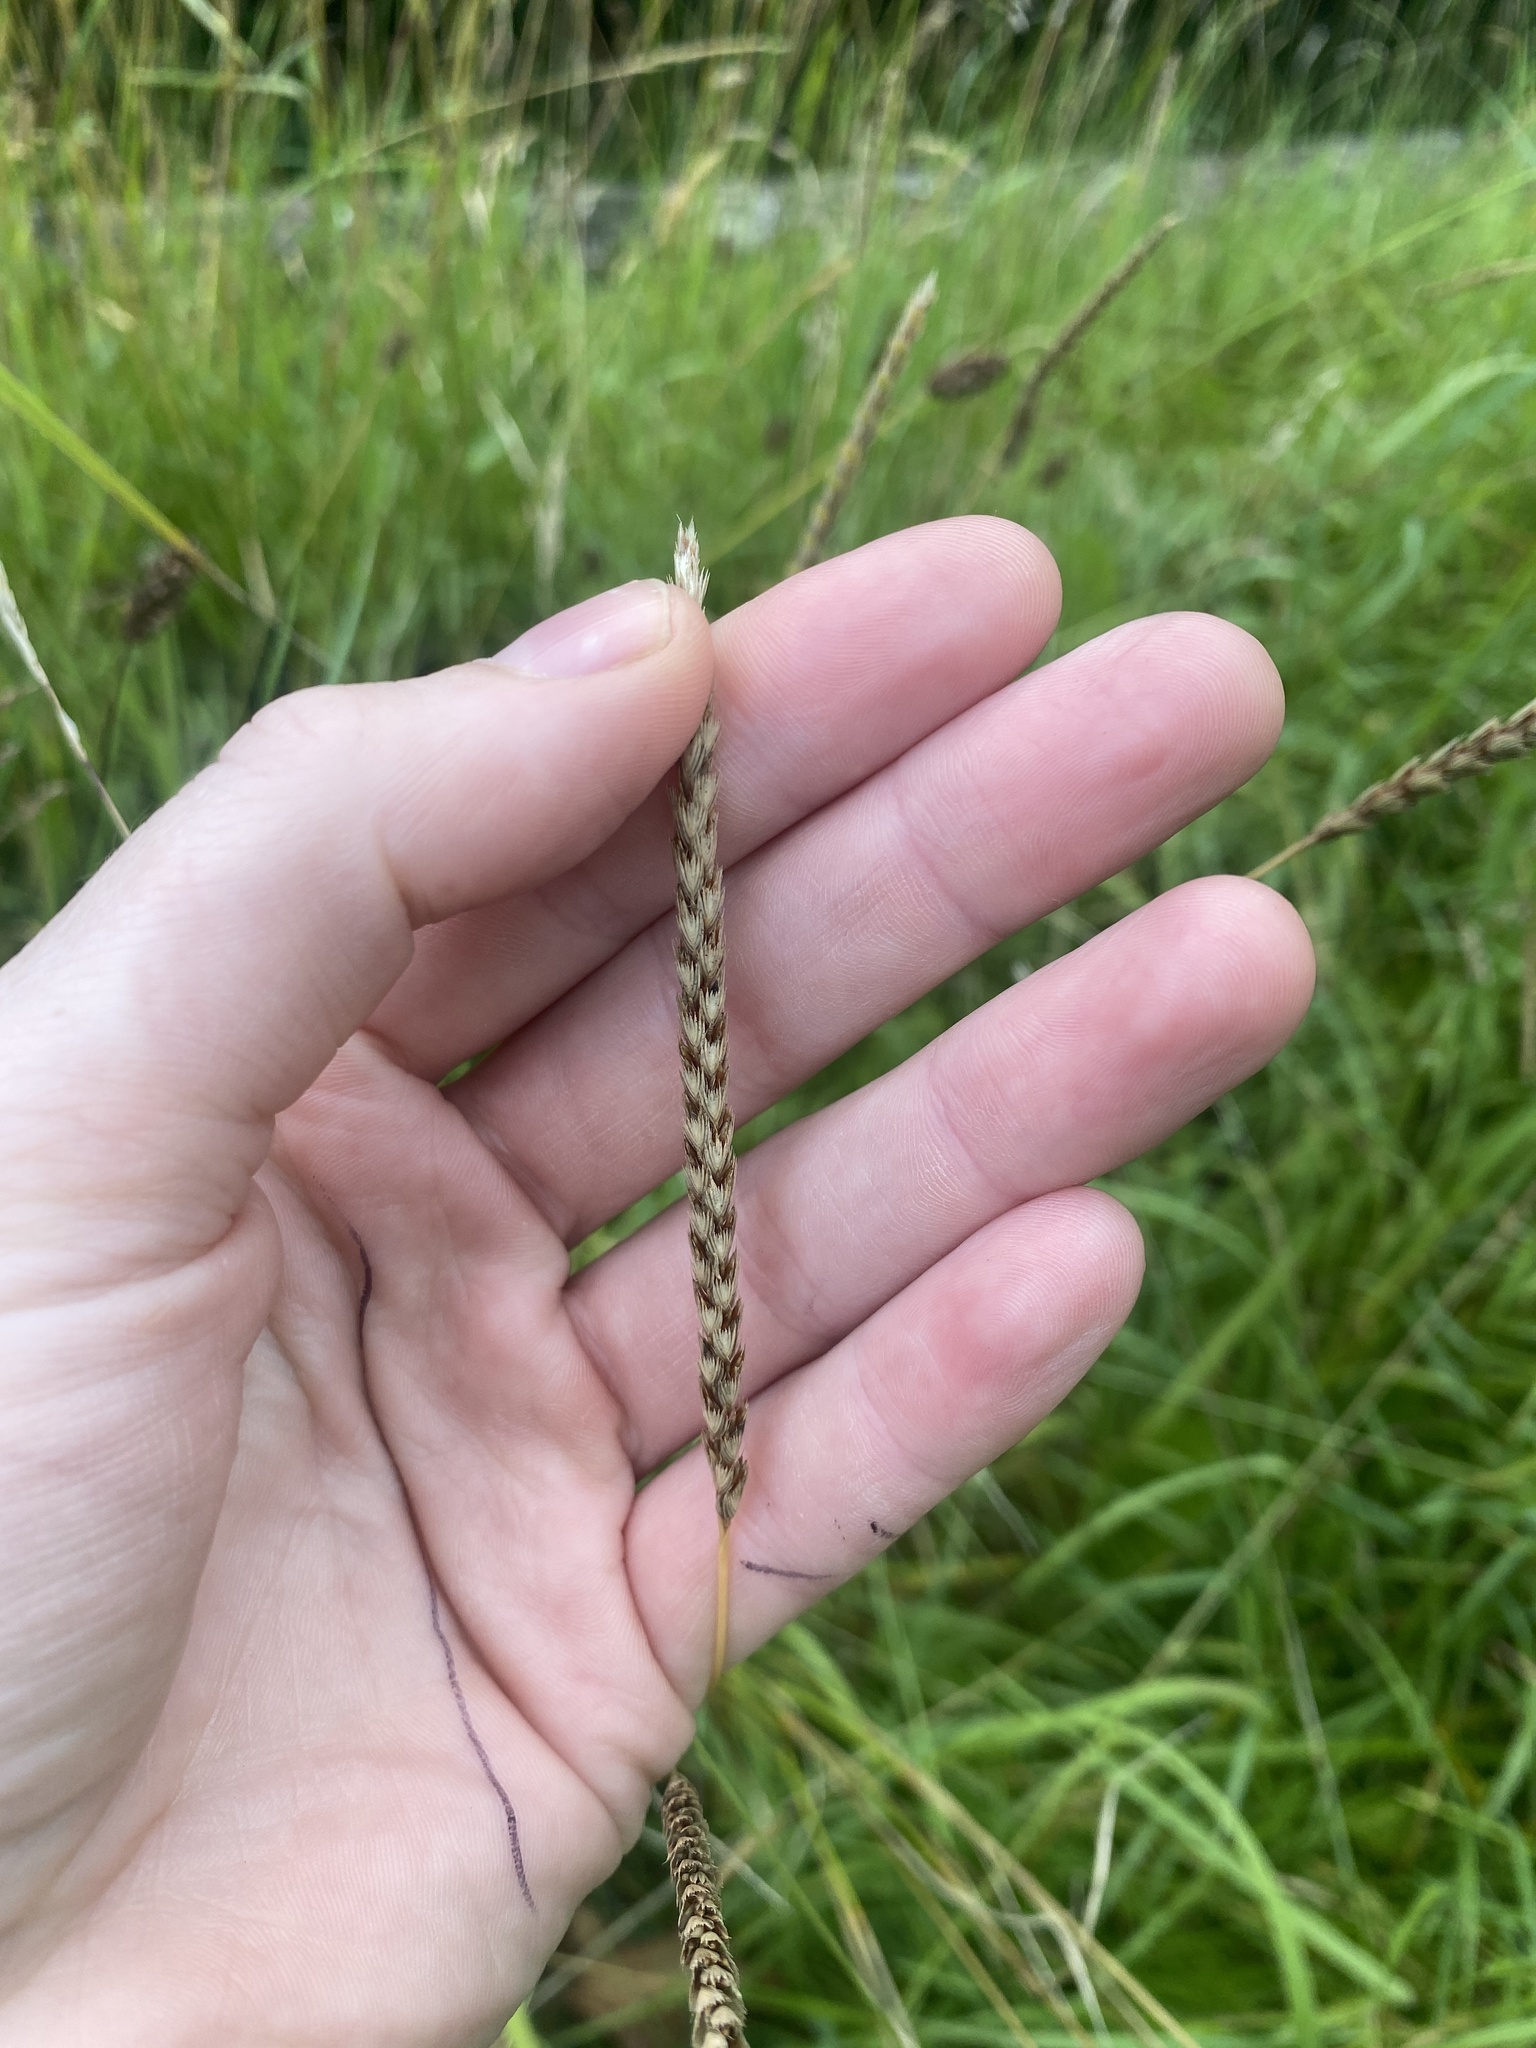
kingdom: Plantae
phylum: Tracheophyta
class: Liliopsida
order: Poales
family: Poaceae
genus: Cynosurus
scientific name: Cynosurus cristatus
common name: Crested dog's-tail
